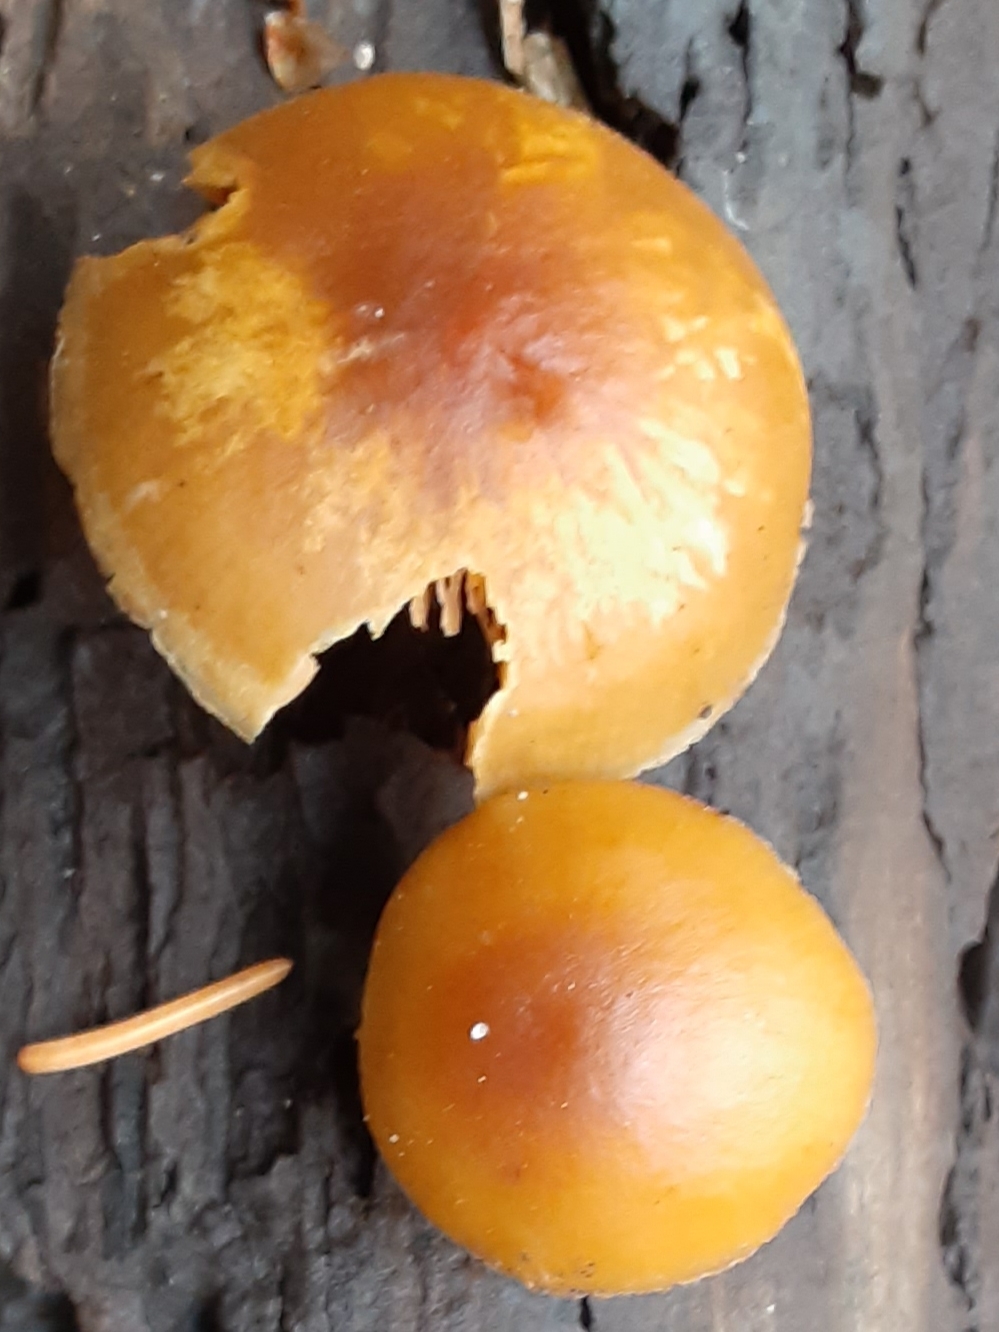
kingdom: Fungi
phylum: Basidiomycota
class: Agaricomycetes
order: Agaricales
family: Hymenogastraceae
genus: Galerina
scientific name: Galerina marginata
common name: Funeral bell
